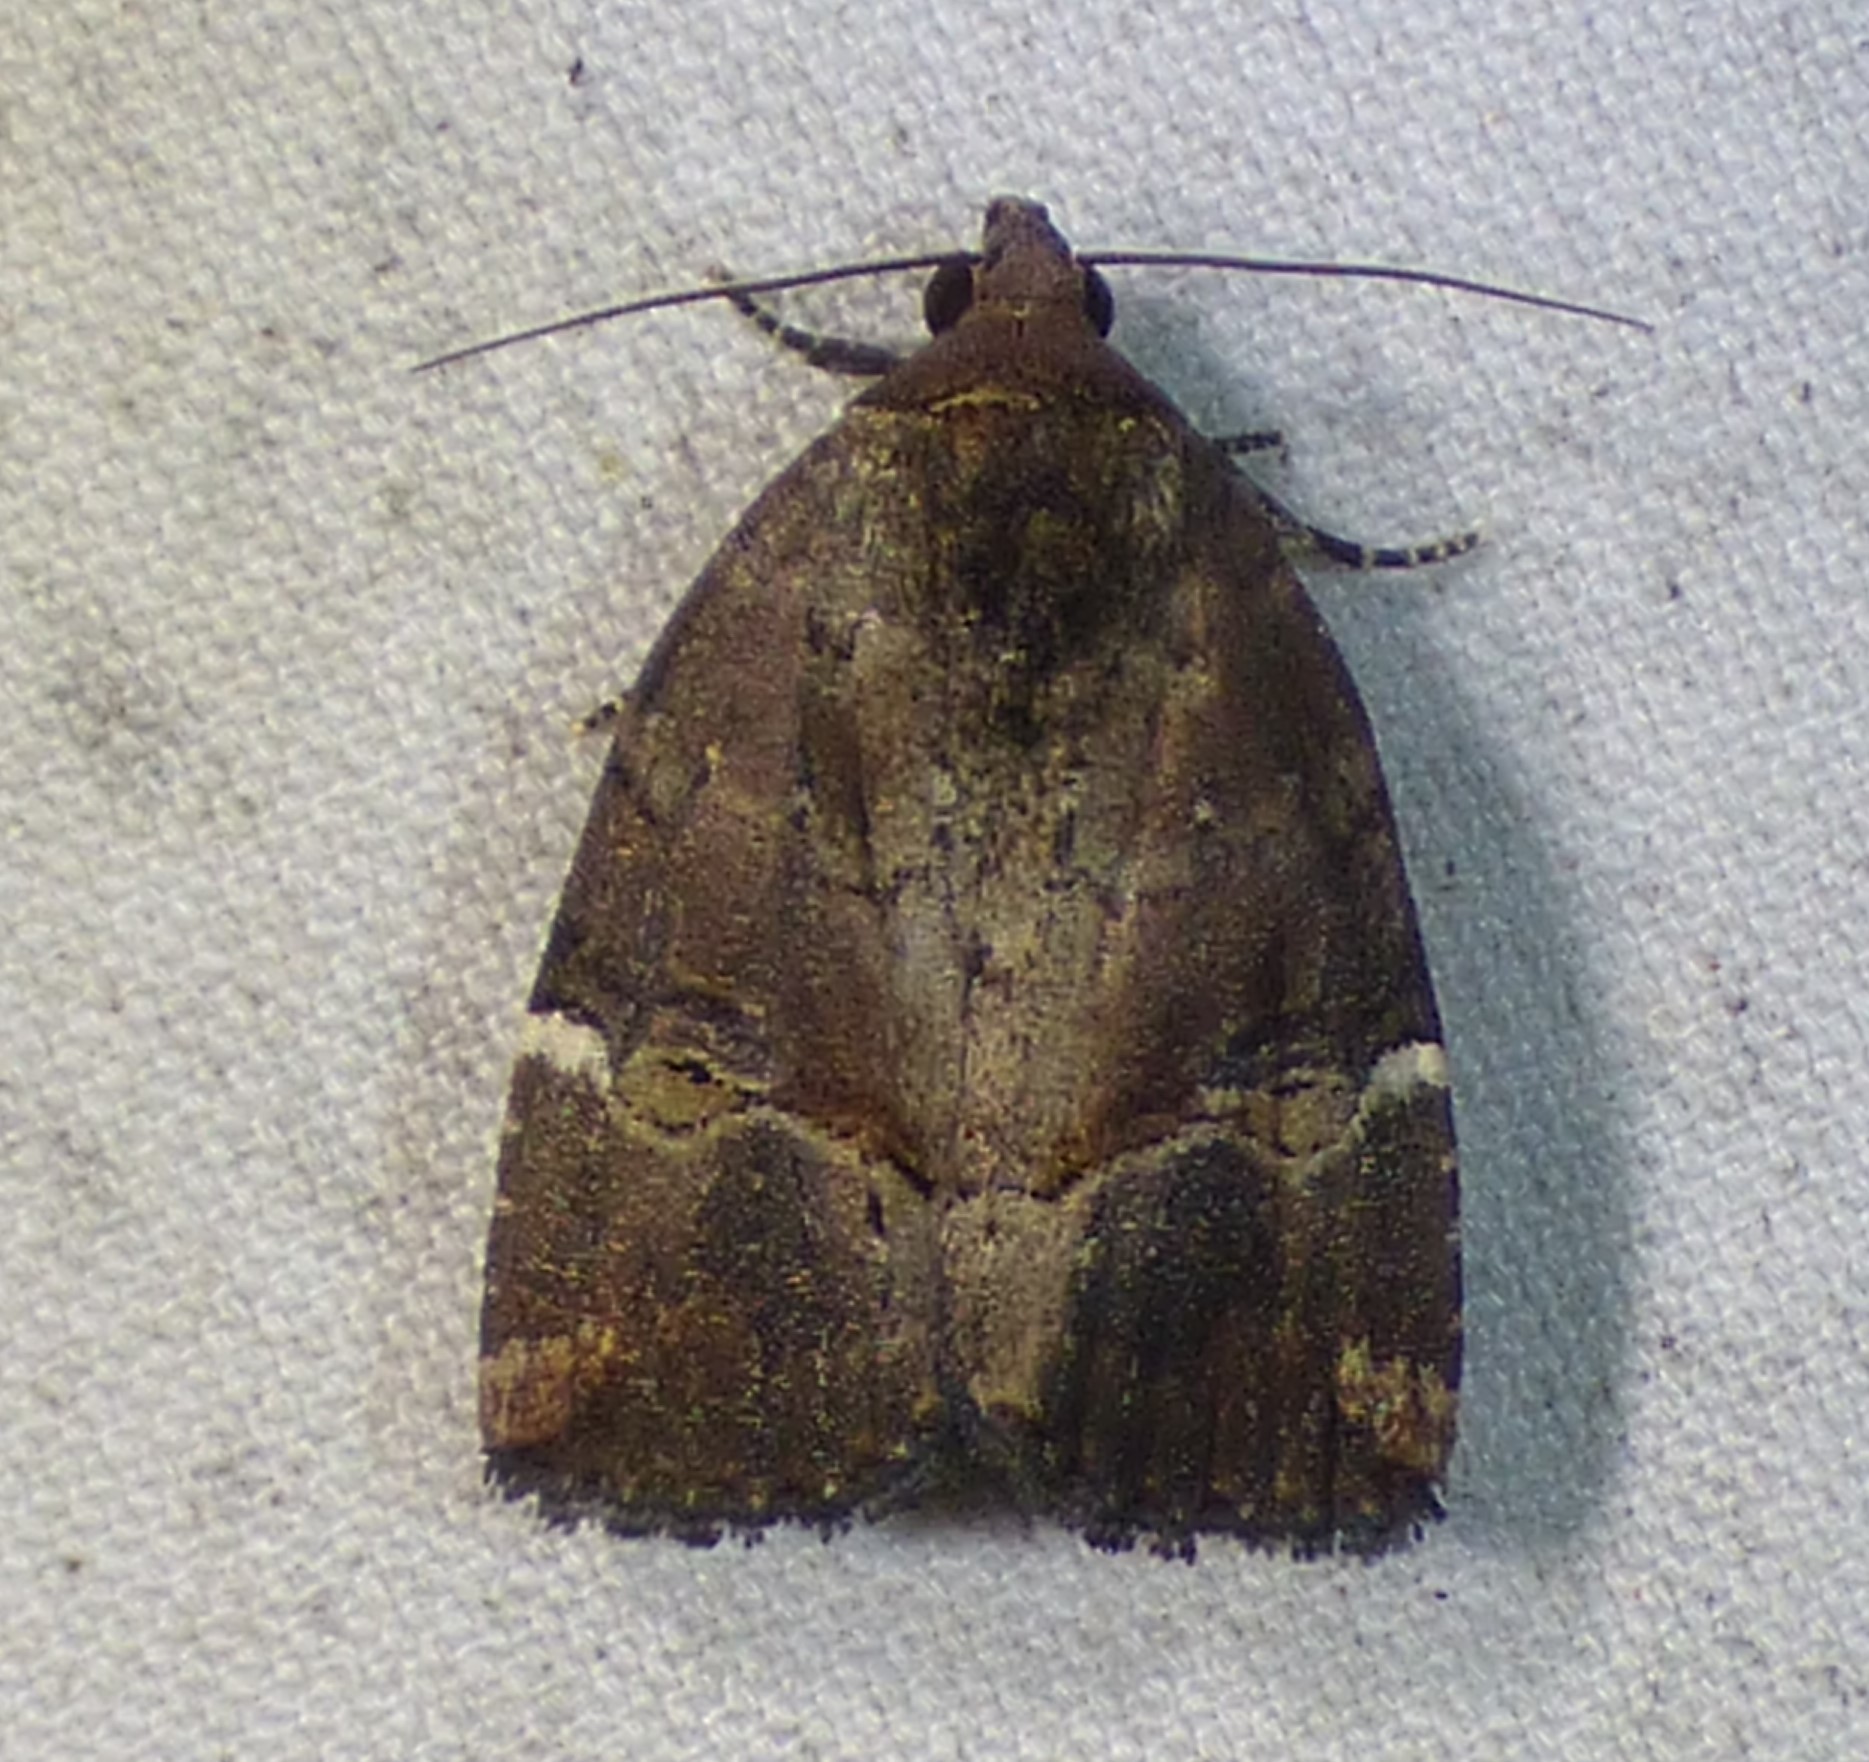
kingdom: Animalia
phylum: Arthropoda
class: Insecta
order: Lepidoptera
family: Noctuidae
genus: Elaphria
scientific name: Elaphria versicolor
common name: Fir harlequin
